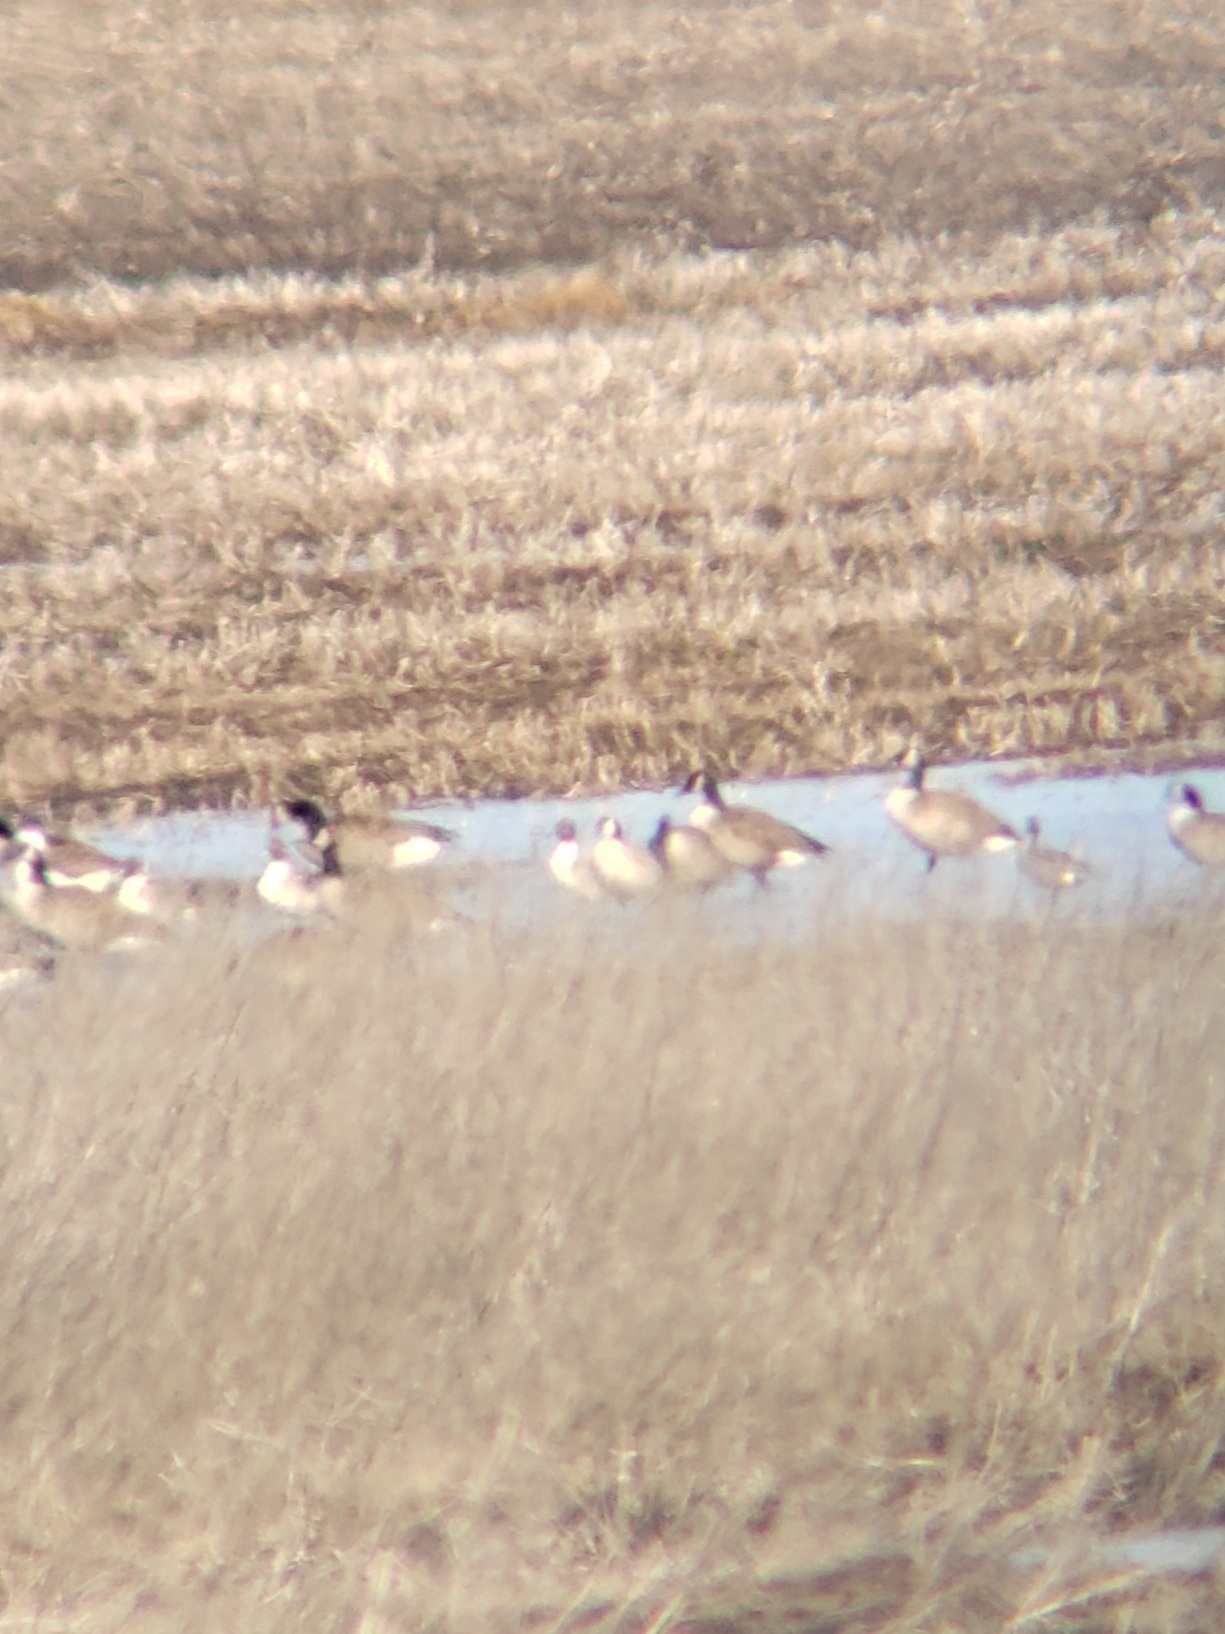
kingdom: Animalia
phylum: Chordata
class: Aves
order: Anseriformes
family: Anatidae
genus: Branta
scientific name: Branta hutchinsii
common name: Cackling goose
